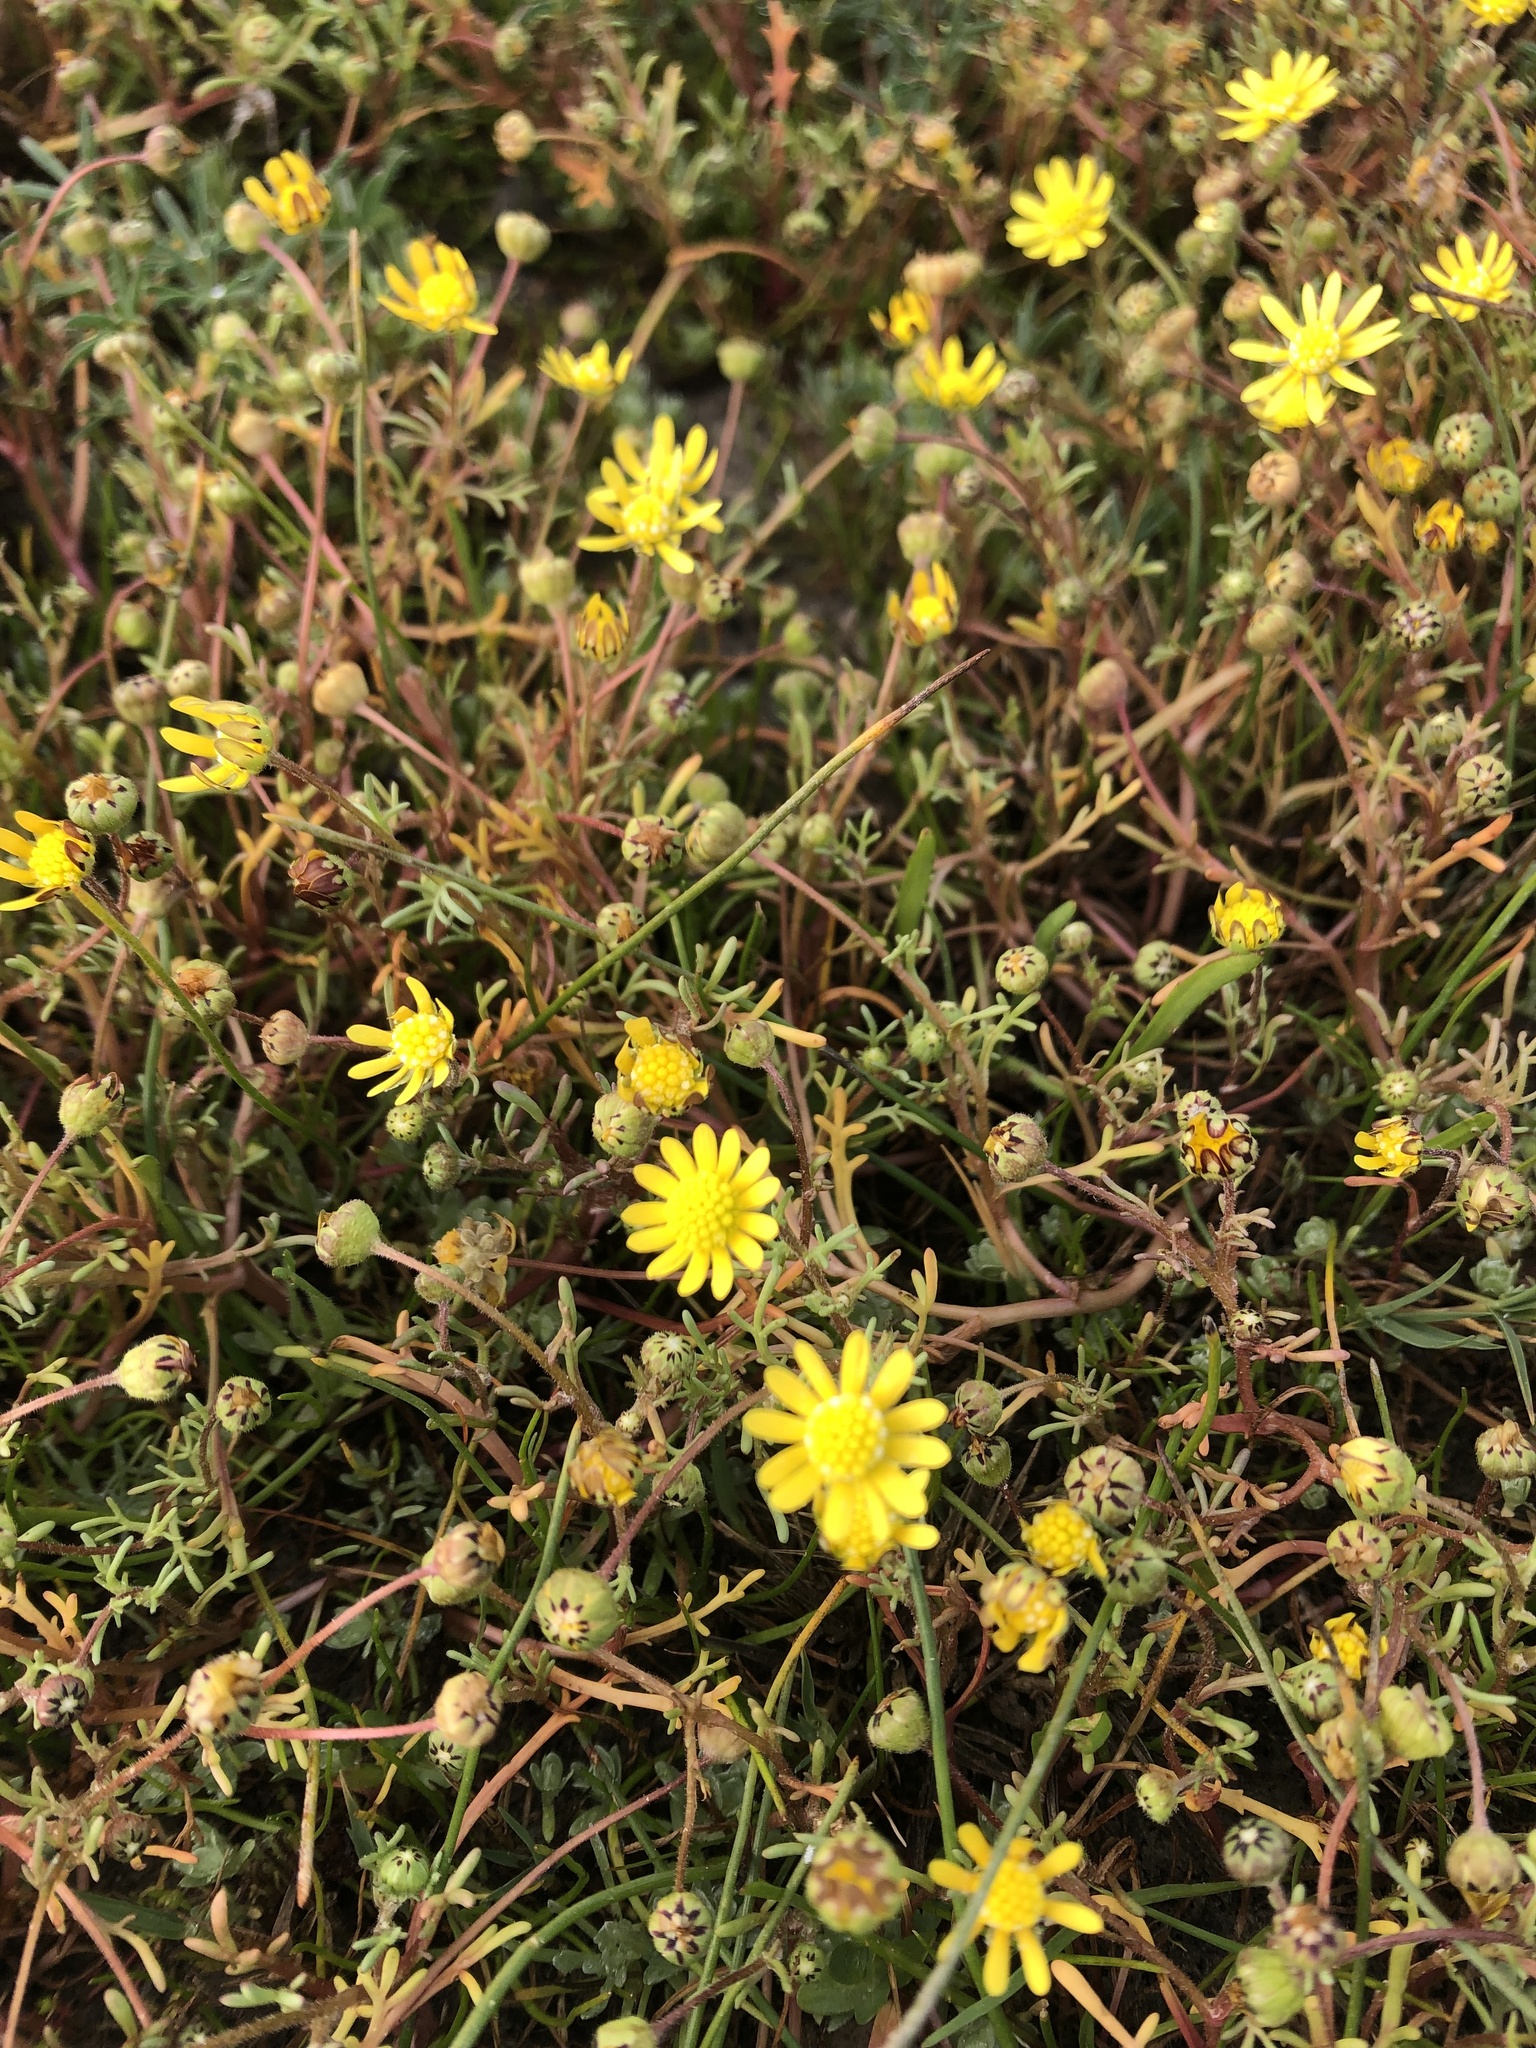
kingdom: Plantae
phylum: Tracheophyta
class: Magnoliopsida
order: Asterales
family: Asteraceae
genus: Blennosperma
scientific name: Blennosperma nanum
